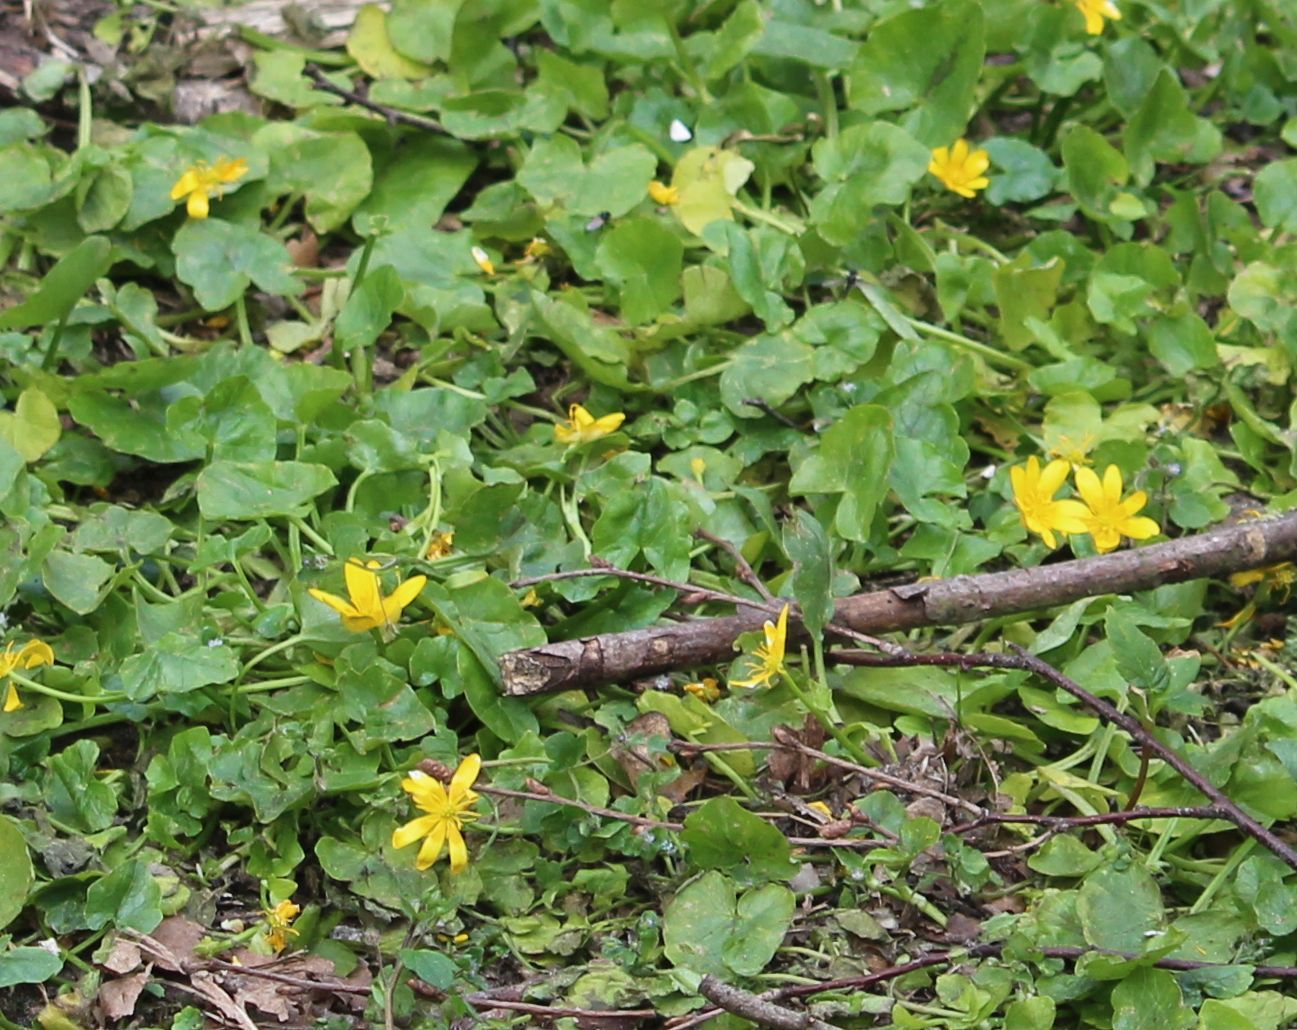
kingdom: Plantae
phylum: Tracheophyta
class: Magnoliopsida
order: Ranunculales
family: Ranunculaceae
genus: Ficaria
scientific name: Ficaria verna
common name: Lesser celandine
